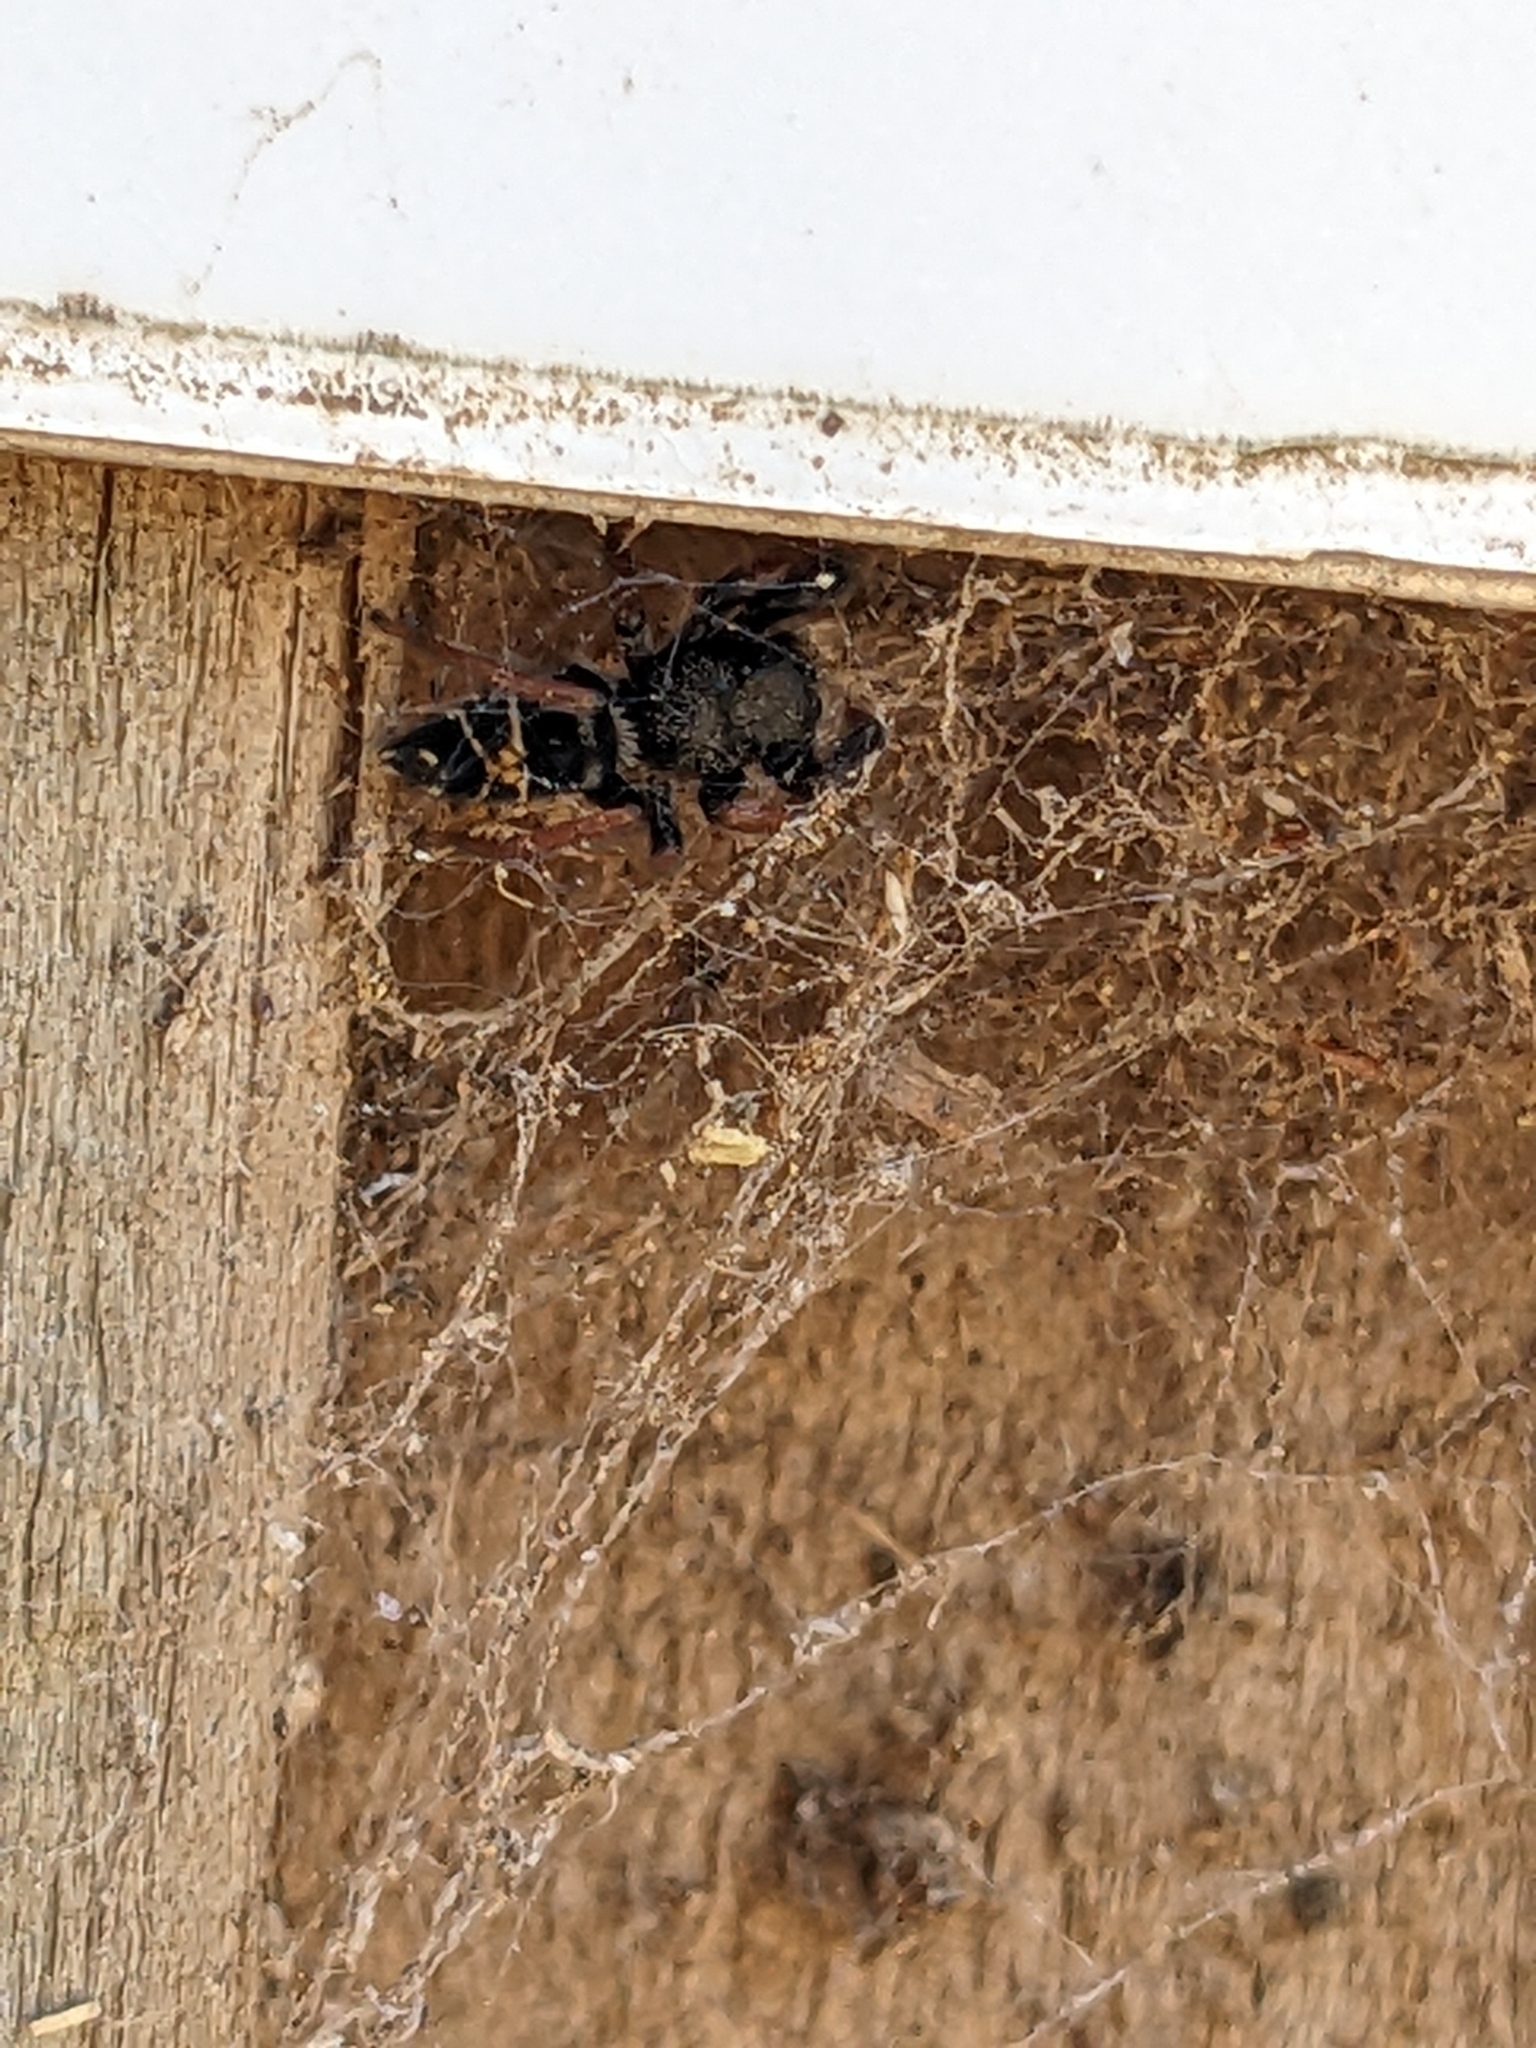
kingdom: Animalia
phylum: Arthropoda
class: Arachnida
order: Araneae
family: Salticidae
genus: Apricia
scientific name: Apricia jovialis
